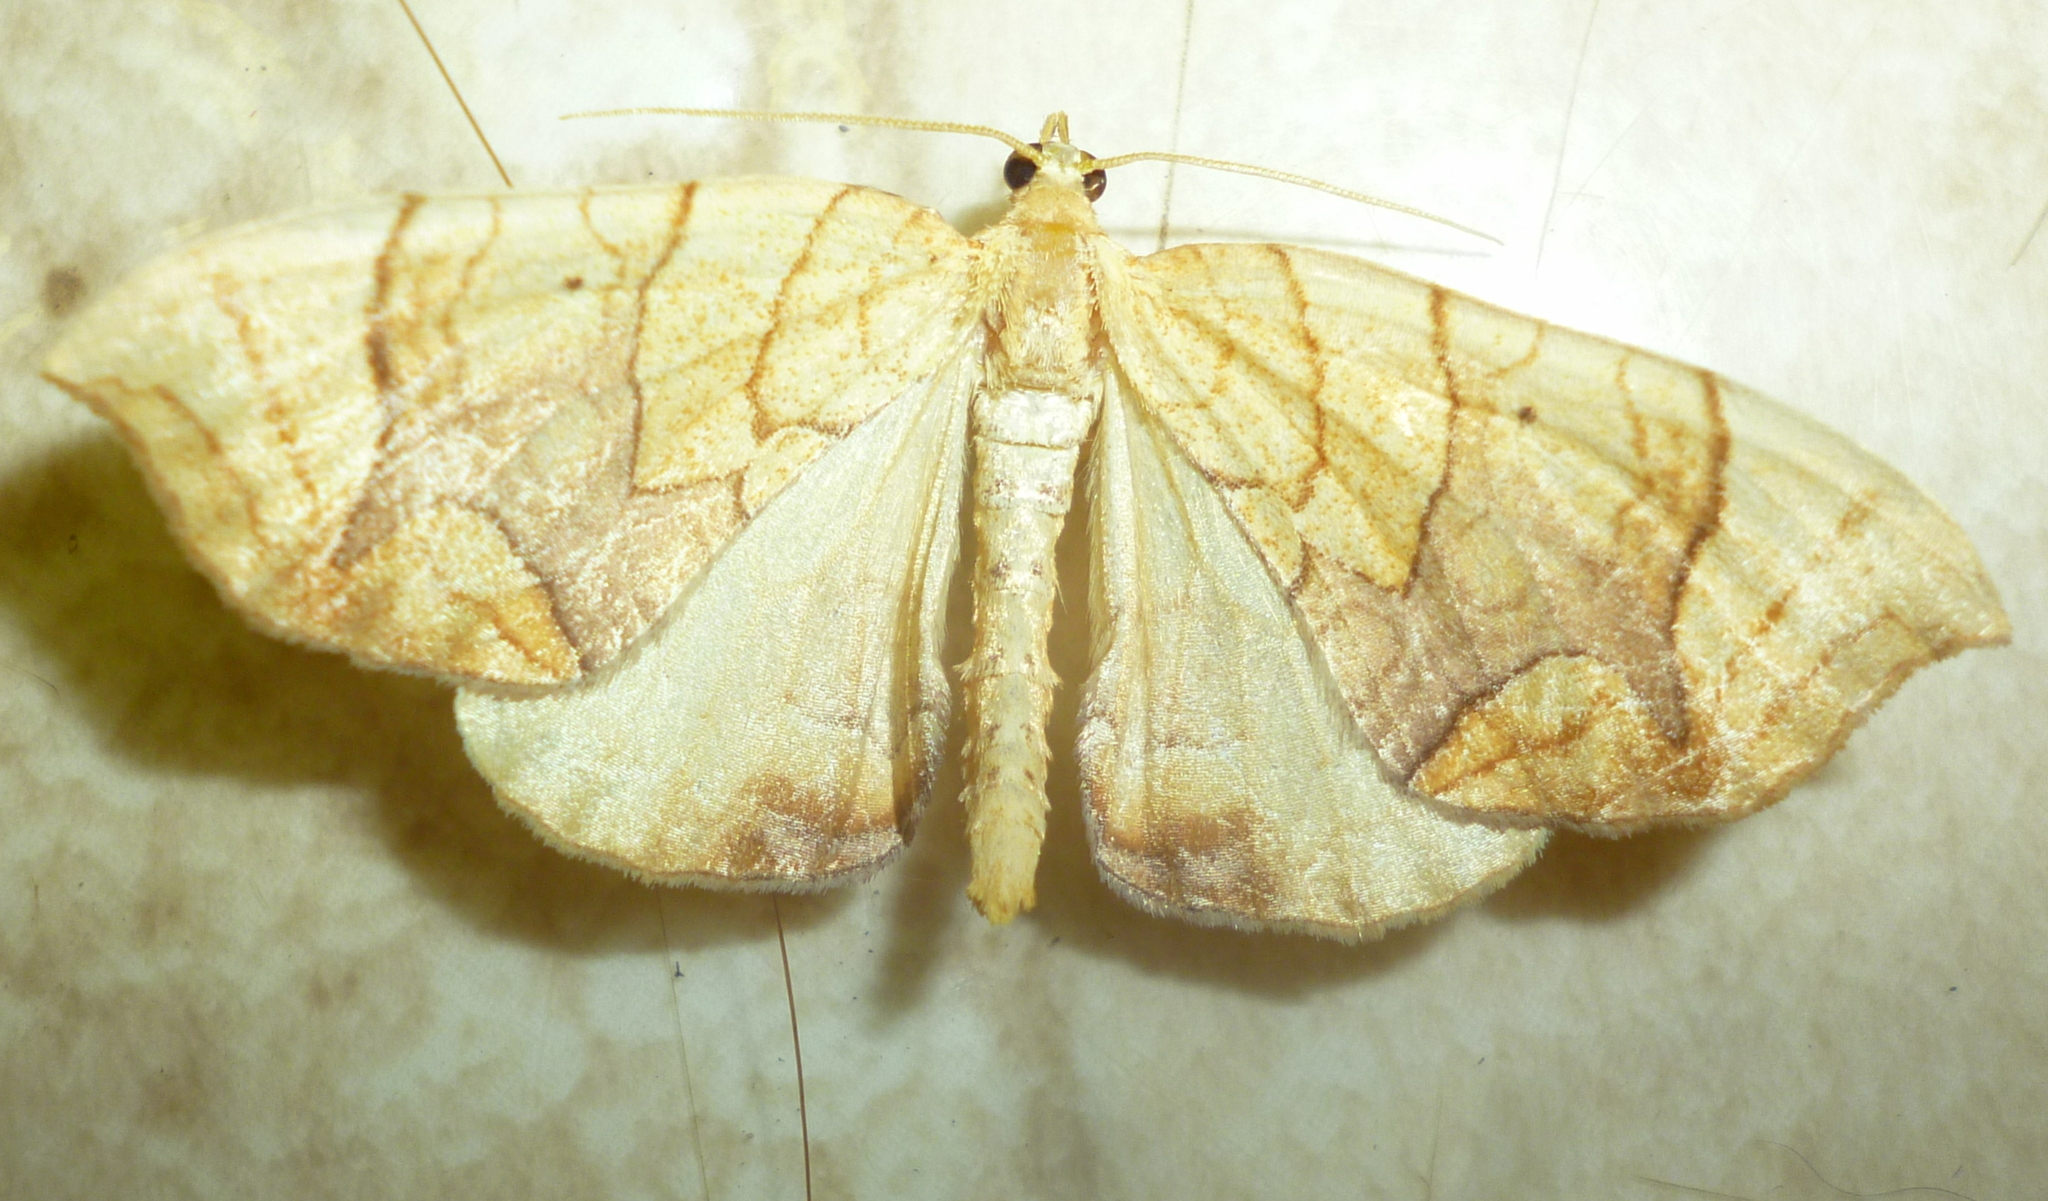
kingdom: Animalia
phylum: Arthropoda
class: Insecta
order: Lepidoptera
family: Geometridae
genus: Eulithis
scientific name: Eulithis diversilineata
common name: Grapevine looper
